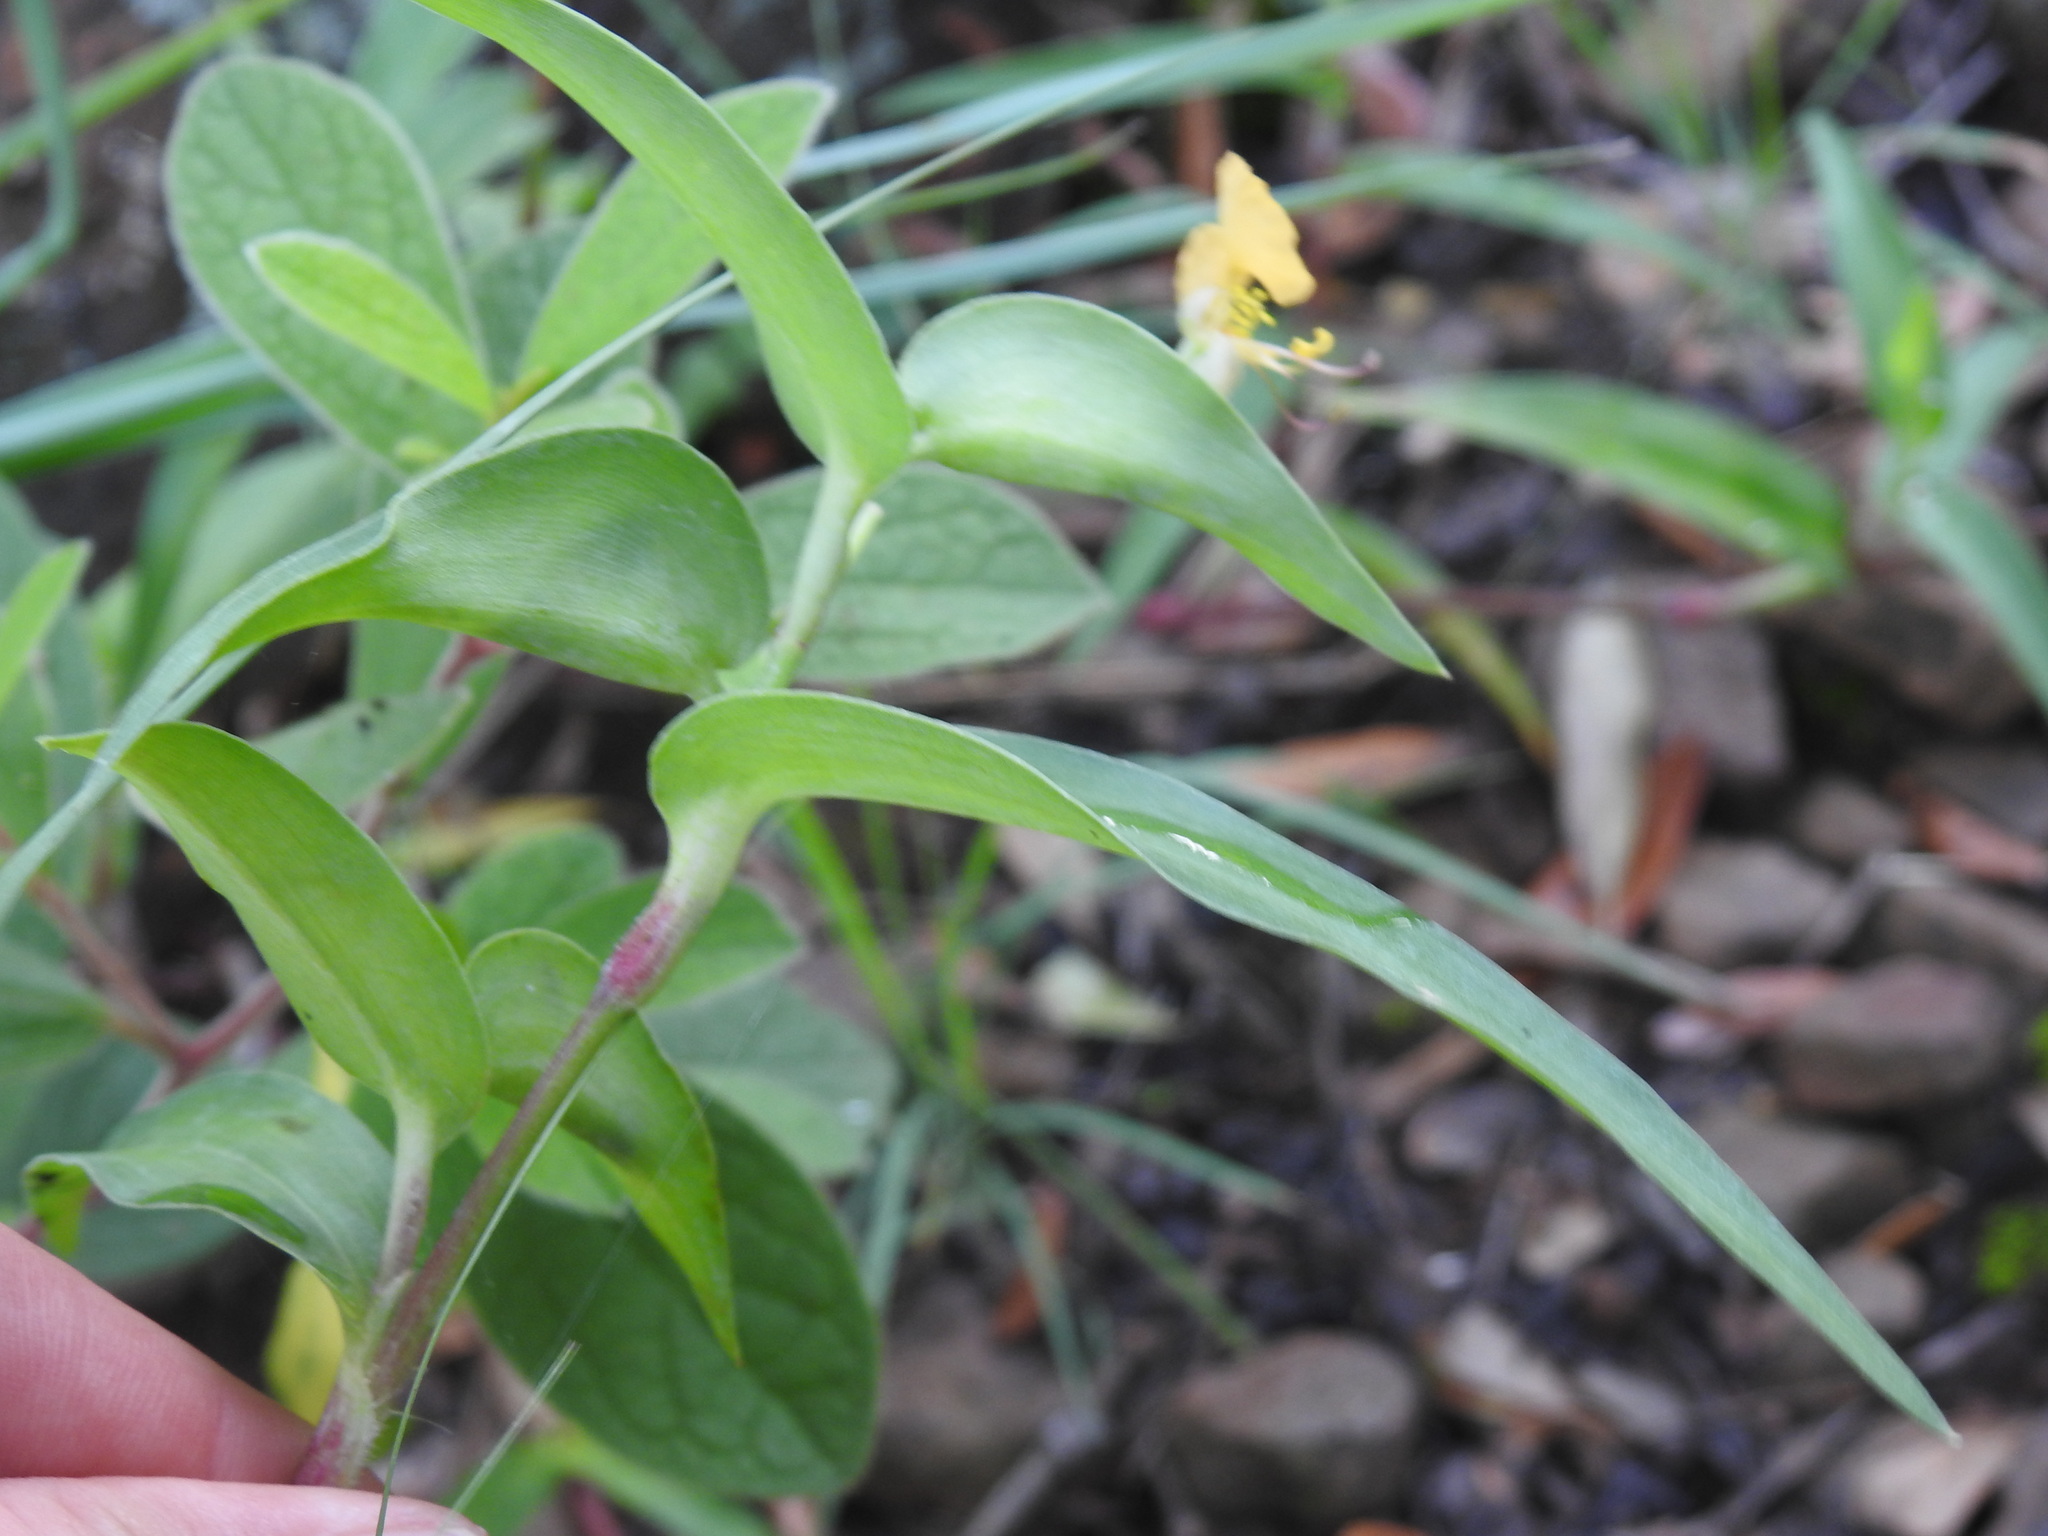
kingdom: Plantae
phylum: Tracheophyta
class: Liliopsida
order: Commelinales
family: Commelinaceae
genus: Commelina
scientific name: Commelina africana
